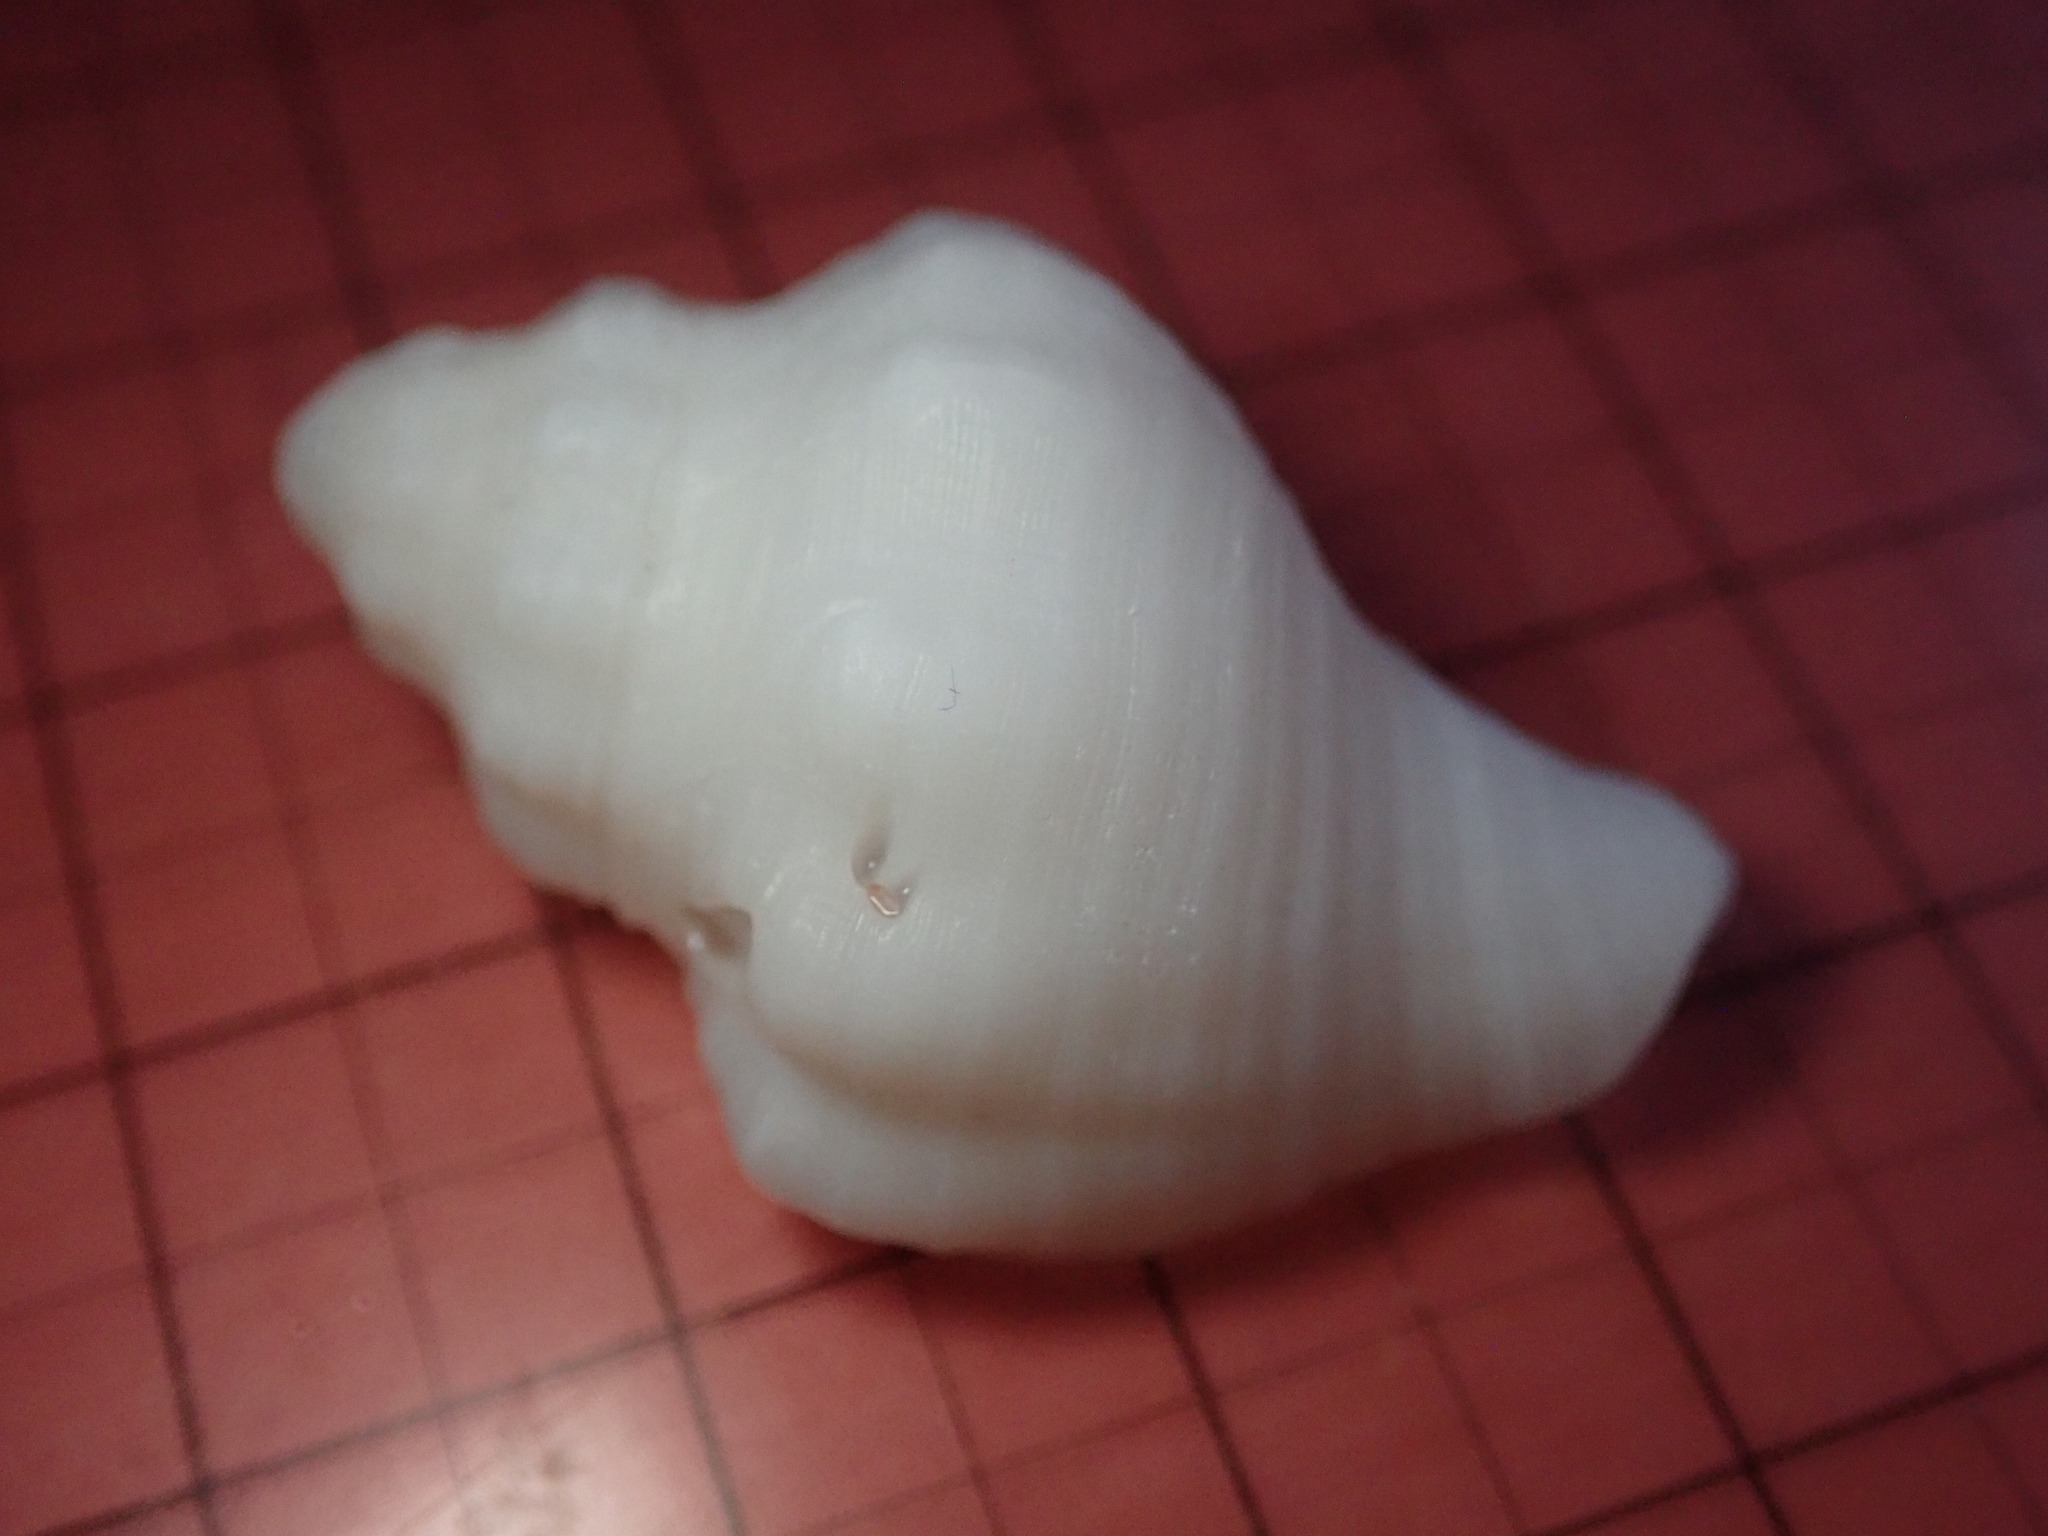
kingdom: Animalia
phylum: Mollusca
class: Gastropoda
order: Neogastropoda
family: Pisaniidae
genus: Solenosteira
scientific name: Solenosteira macrospira
